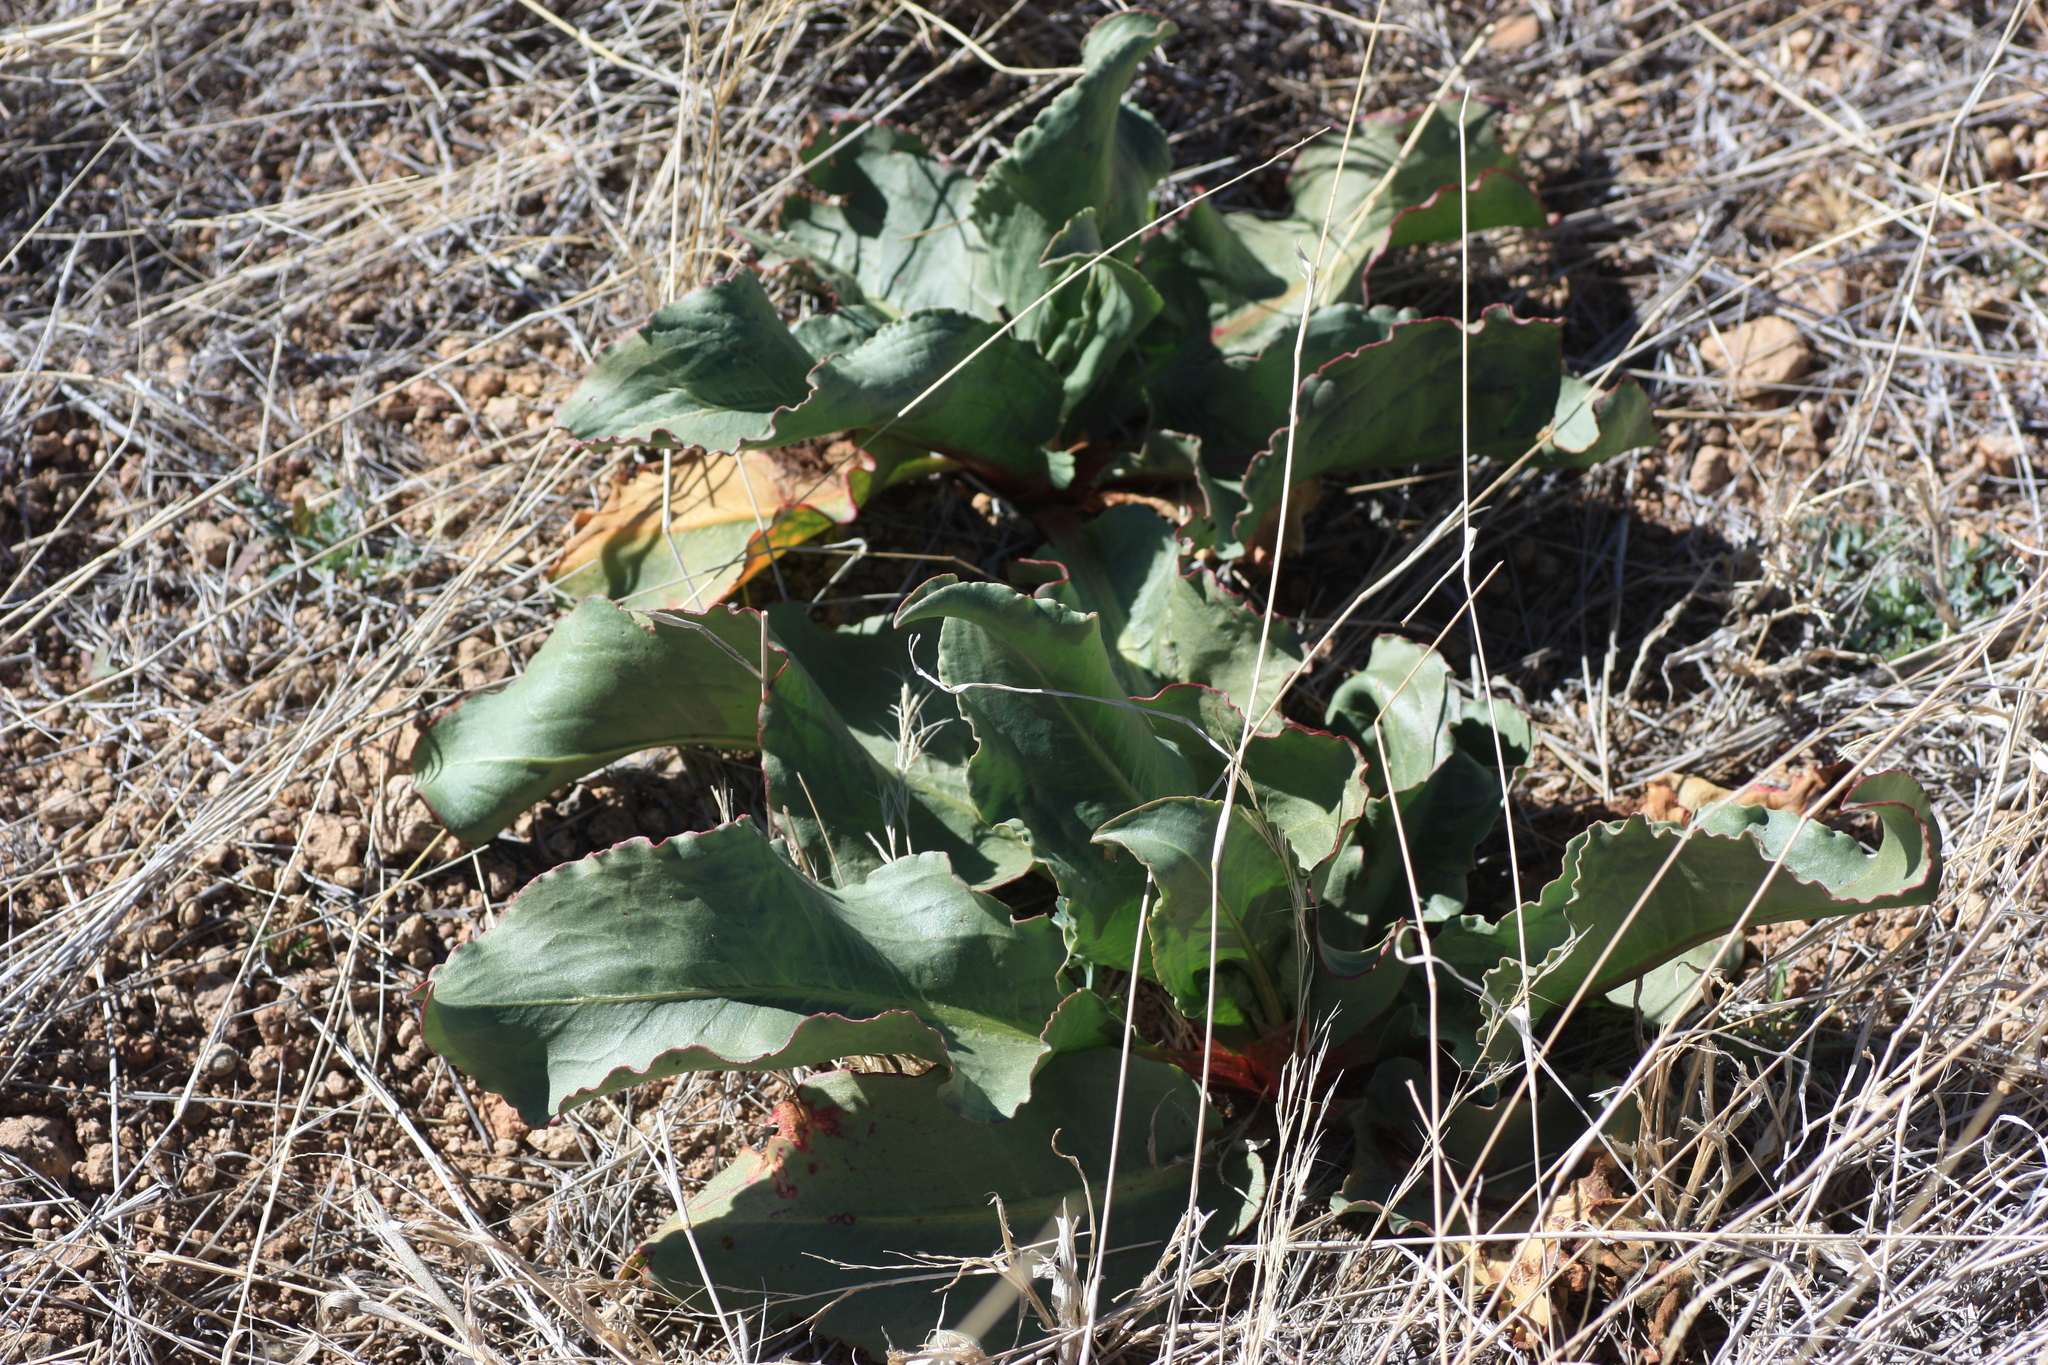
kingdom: Plantae
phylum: Tracheophyta
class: Magnoliopsida
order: Caryophyllales
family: Polygonaceae
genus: Rumex
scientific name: Rumex hymenosepalus
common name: Ganagra
